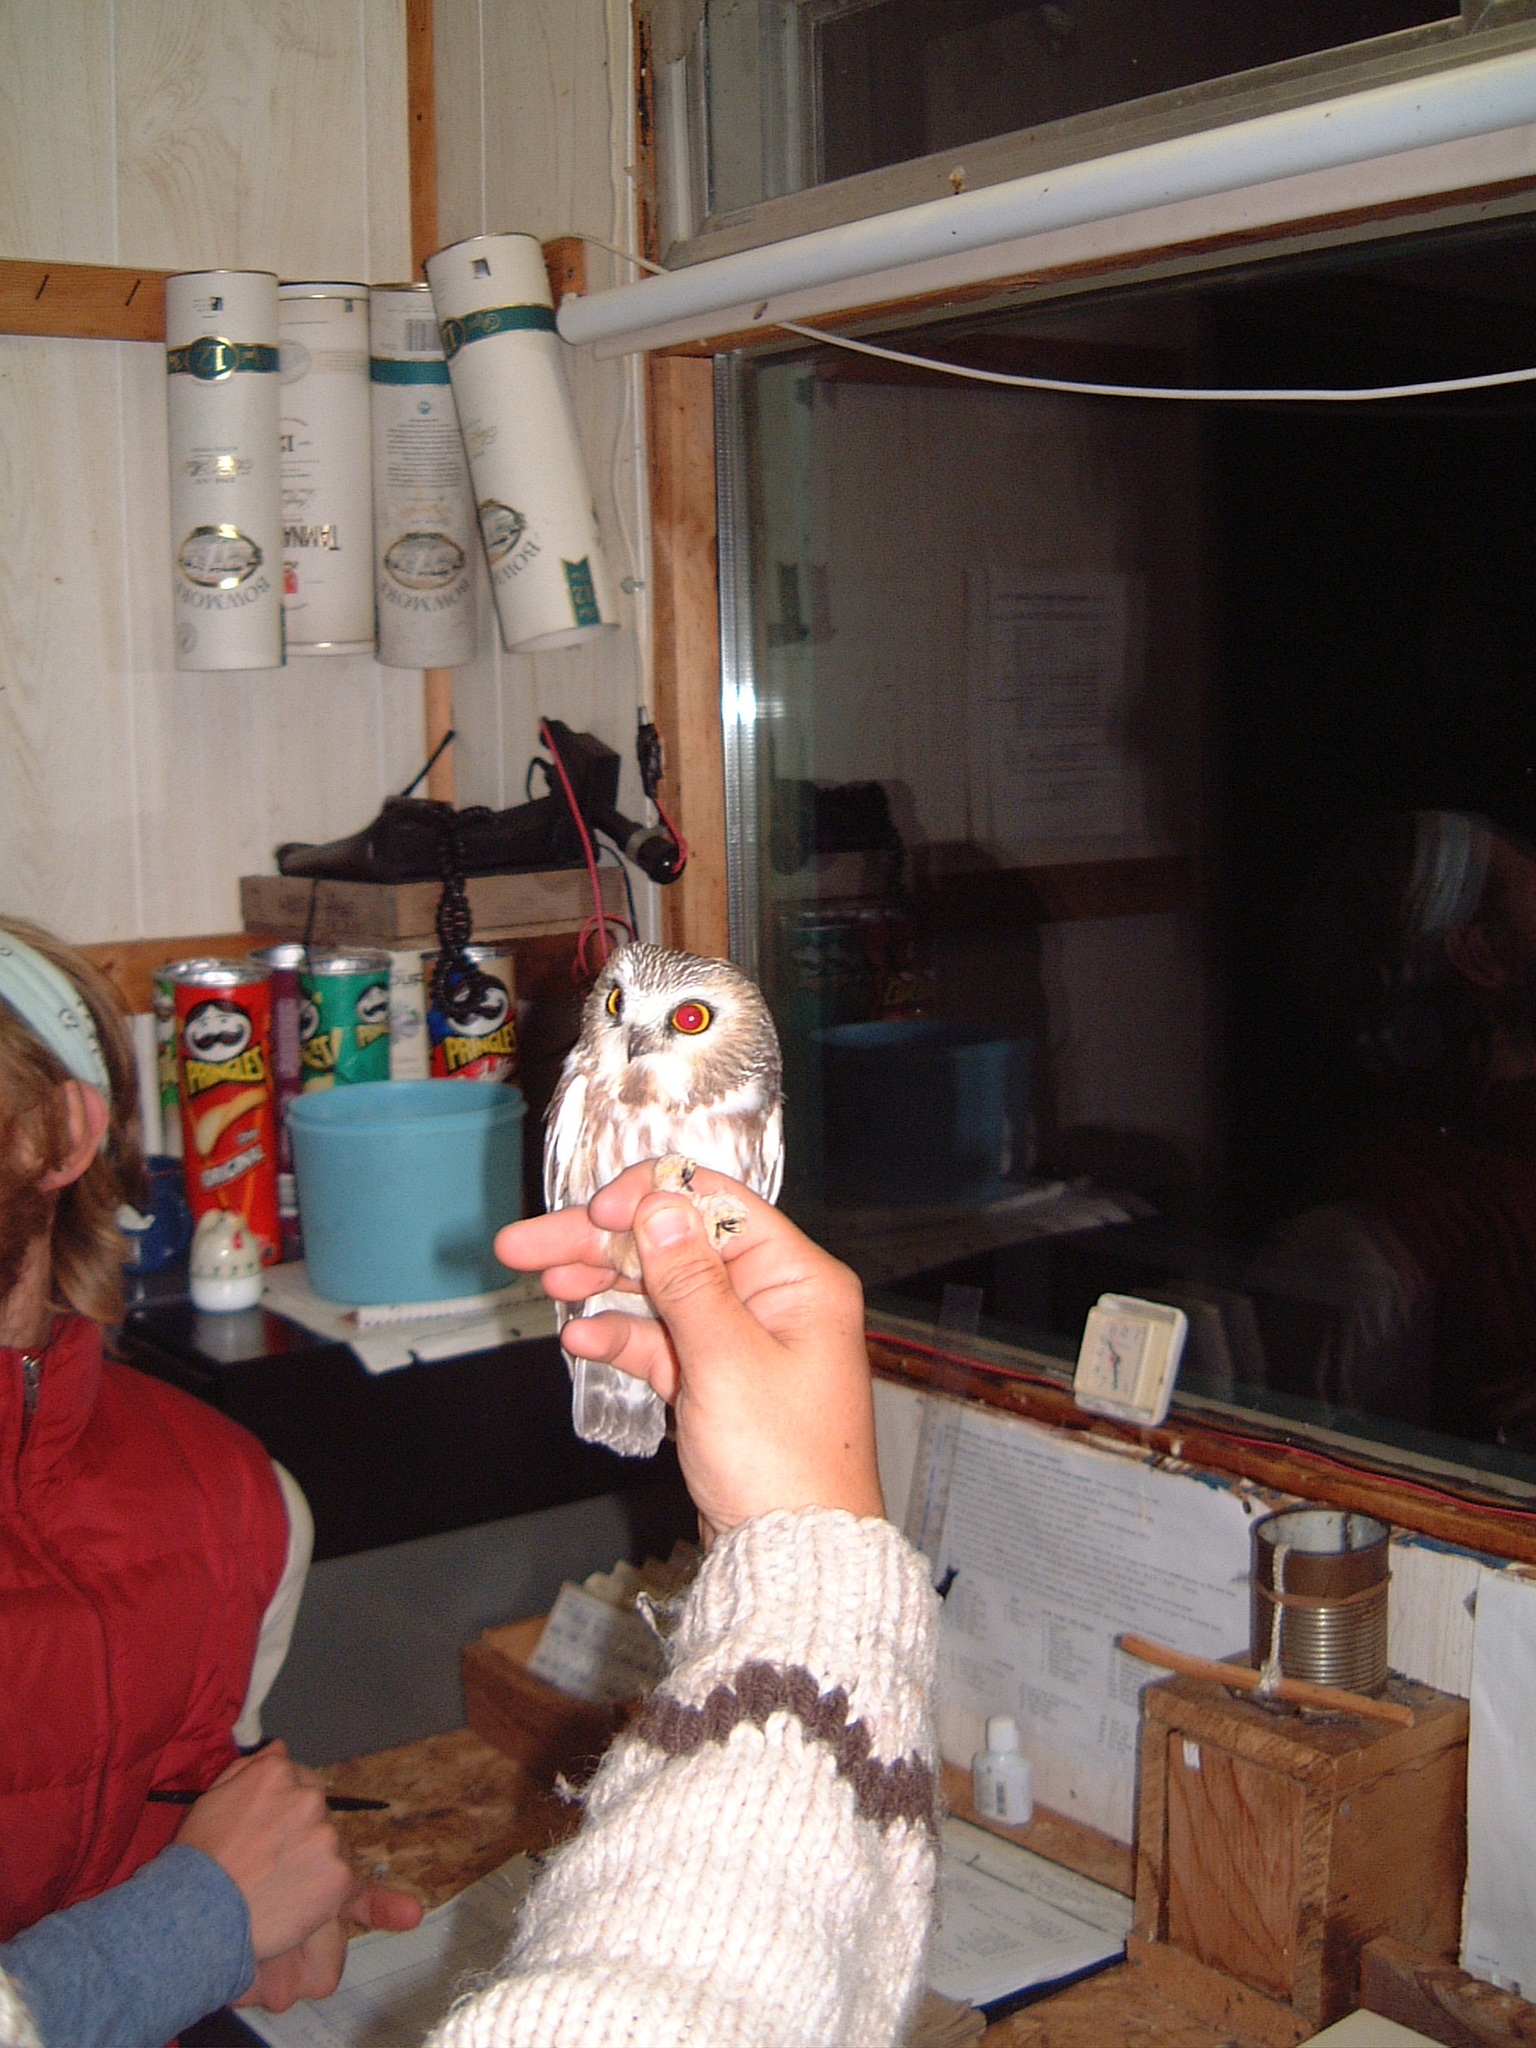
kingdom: Animalia
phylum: Chordata
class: Aves
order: Strigiformes
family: Strigidae
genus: Aegolius
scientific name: Aegolius acadicus
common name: Northern saw-whet owl
